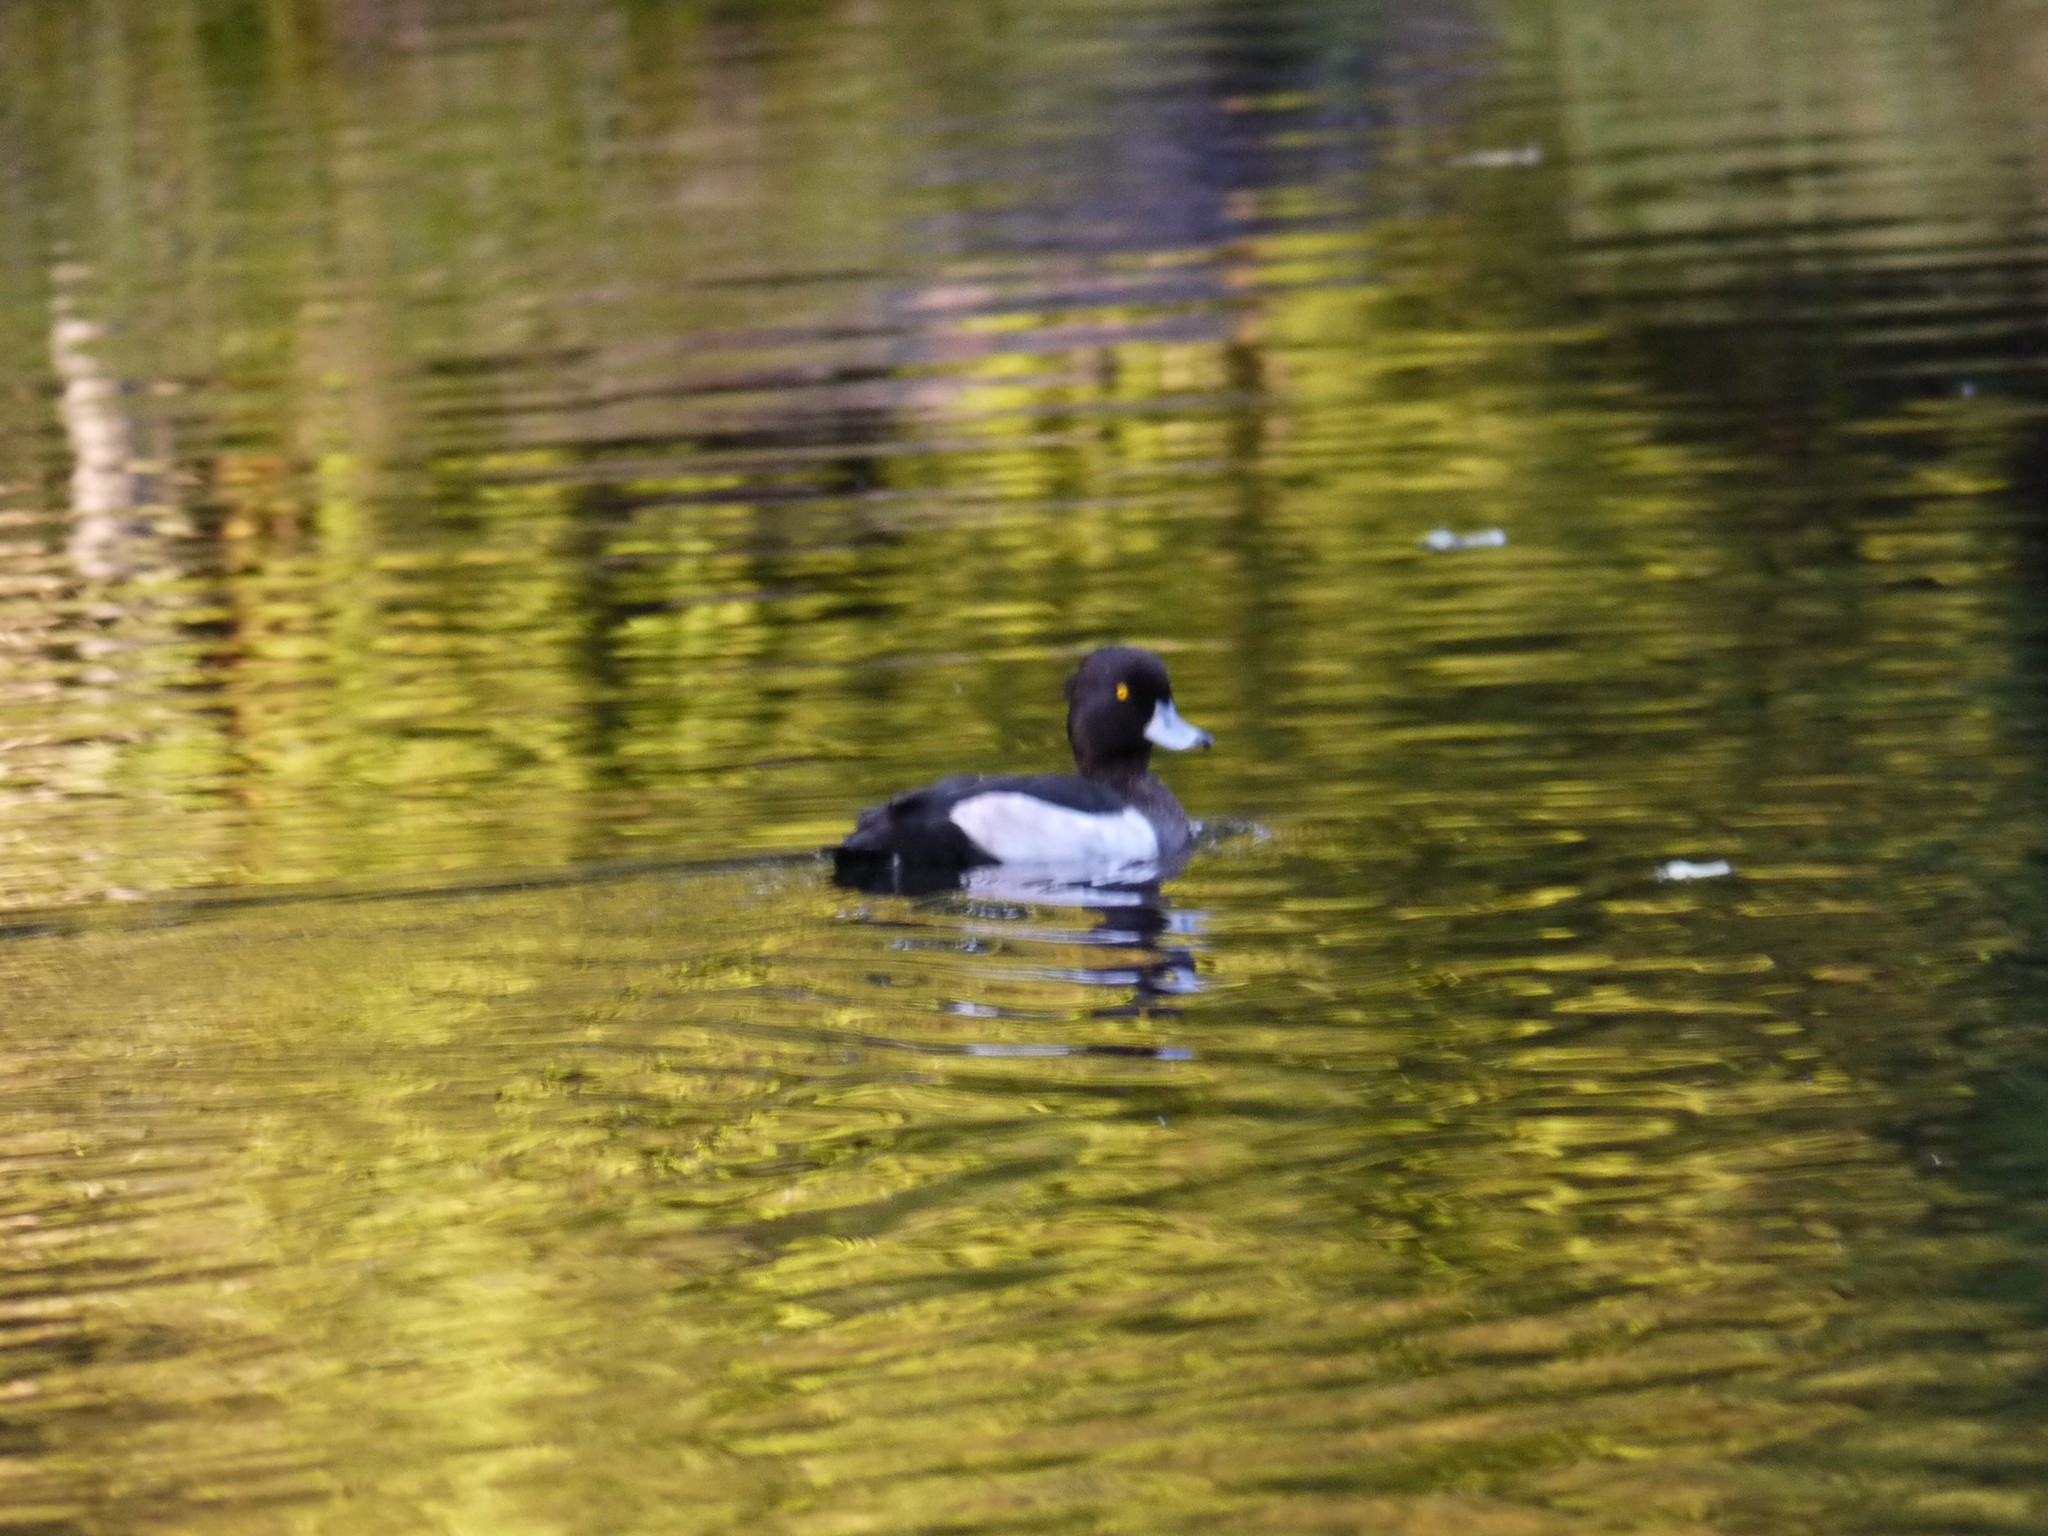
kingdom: Animalia
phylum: Chordata
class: Aves
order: Anseriformes
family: Anatidae
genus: Aythya
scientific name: Aythya fuligula
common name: Tufted duck
